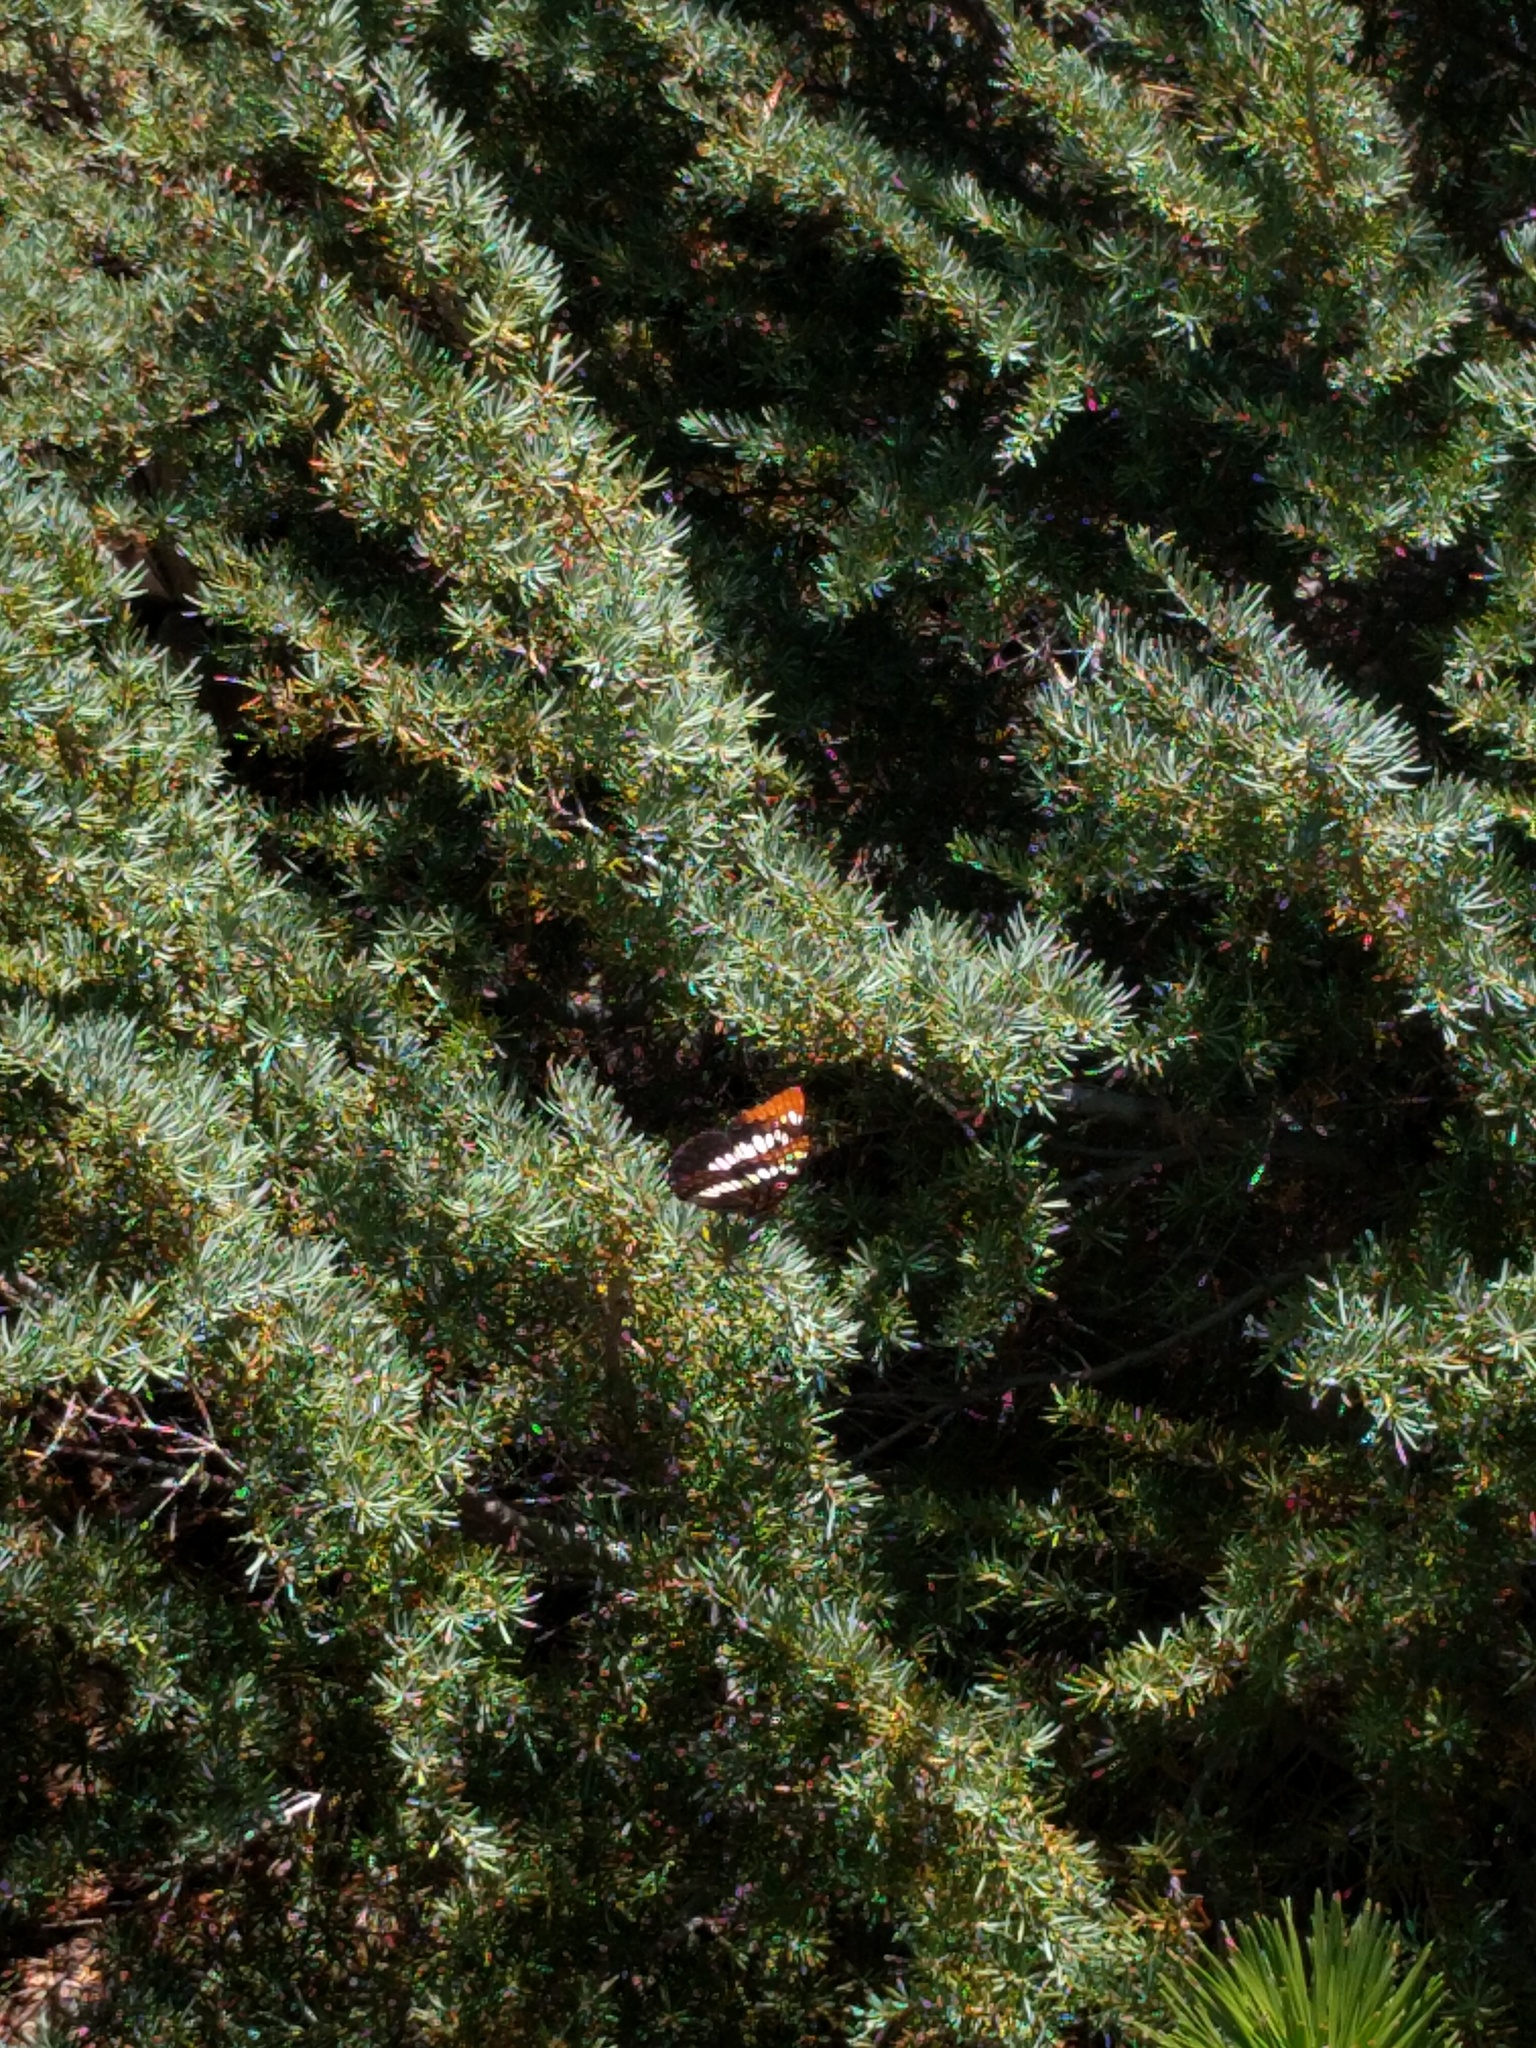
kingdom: Animalia
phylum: Arthropoda
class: Insecta
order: Lepidoptera
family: Nymphalidae
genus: Limenitis
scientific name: Limenitis lorquini
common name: Lorquin's admiral
